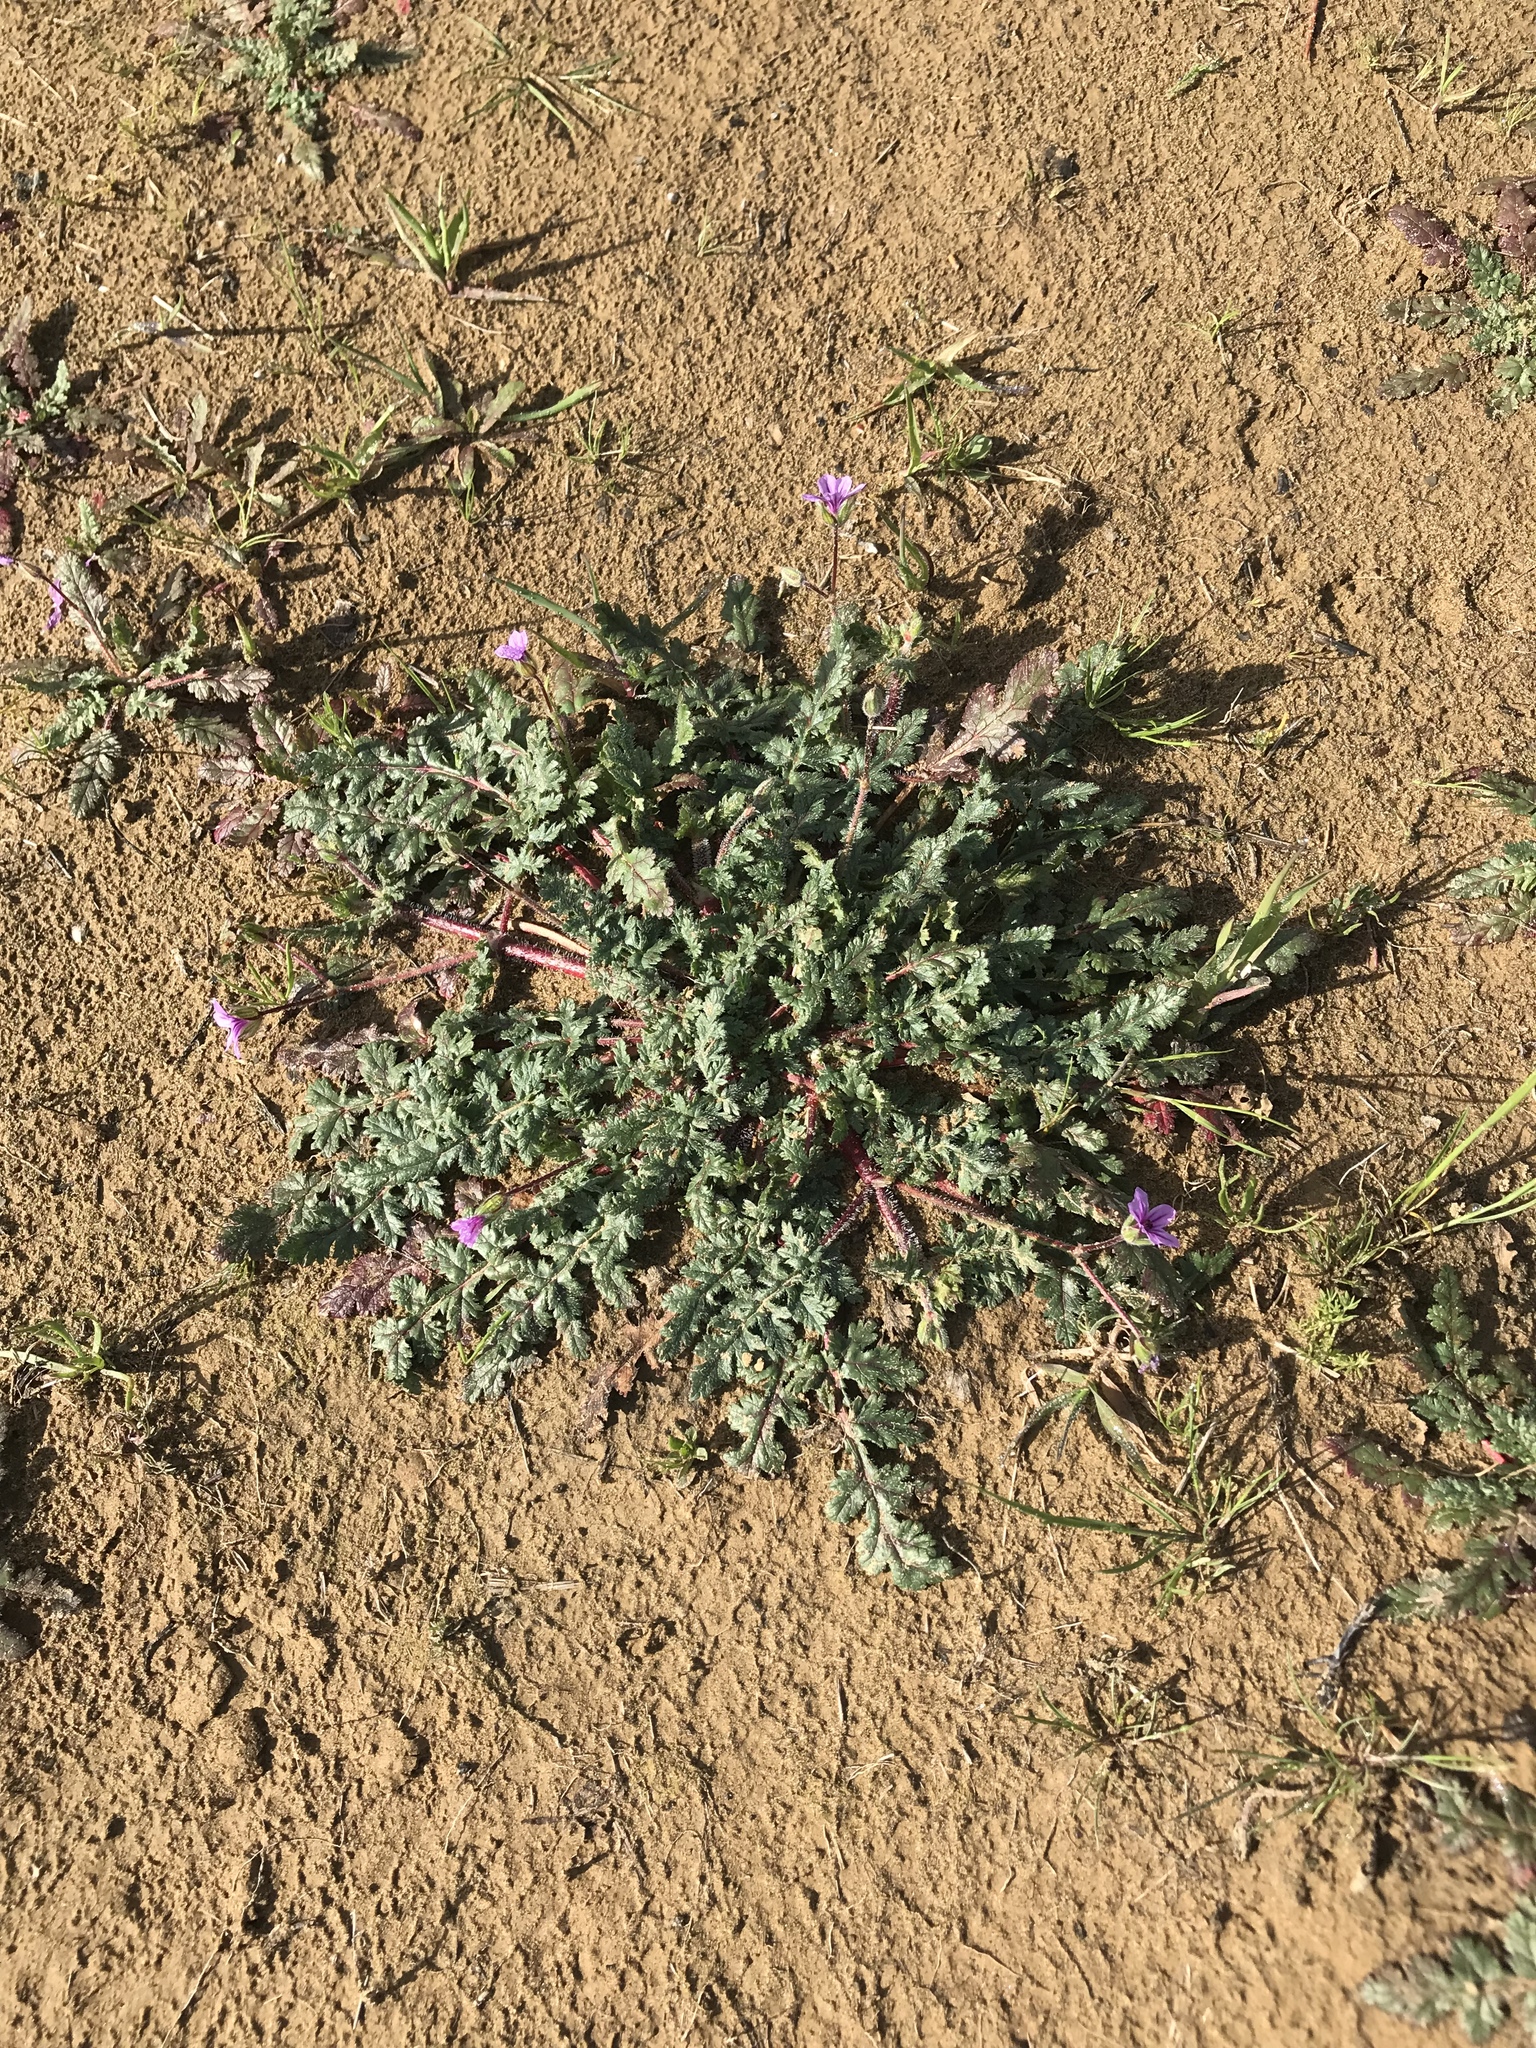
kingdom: Plantae
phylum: Tracheophyta
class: Magnoliopsida
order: Geraniales
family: Geraniaceae
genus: Erodium
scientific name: Erodium botrys
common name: Mediterranean stork's-bill
